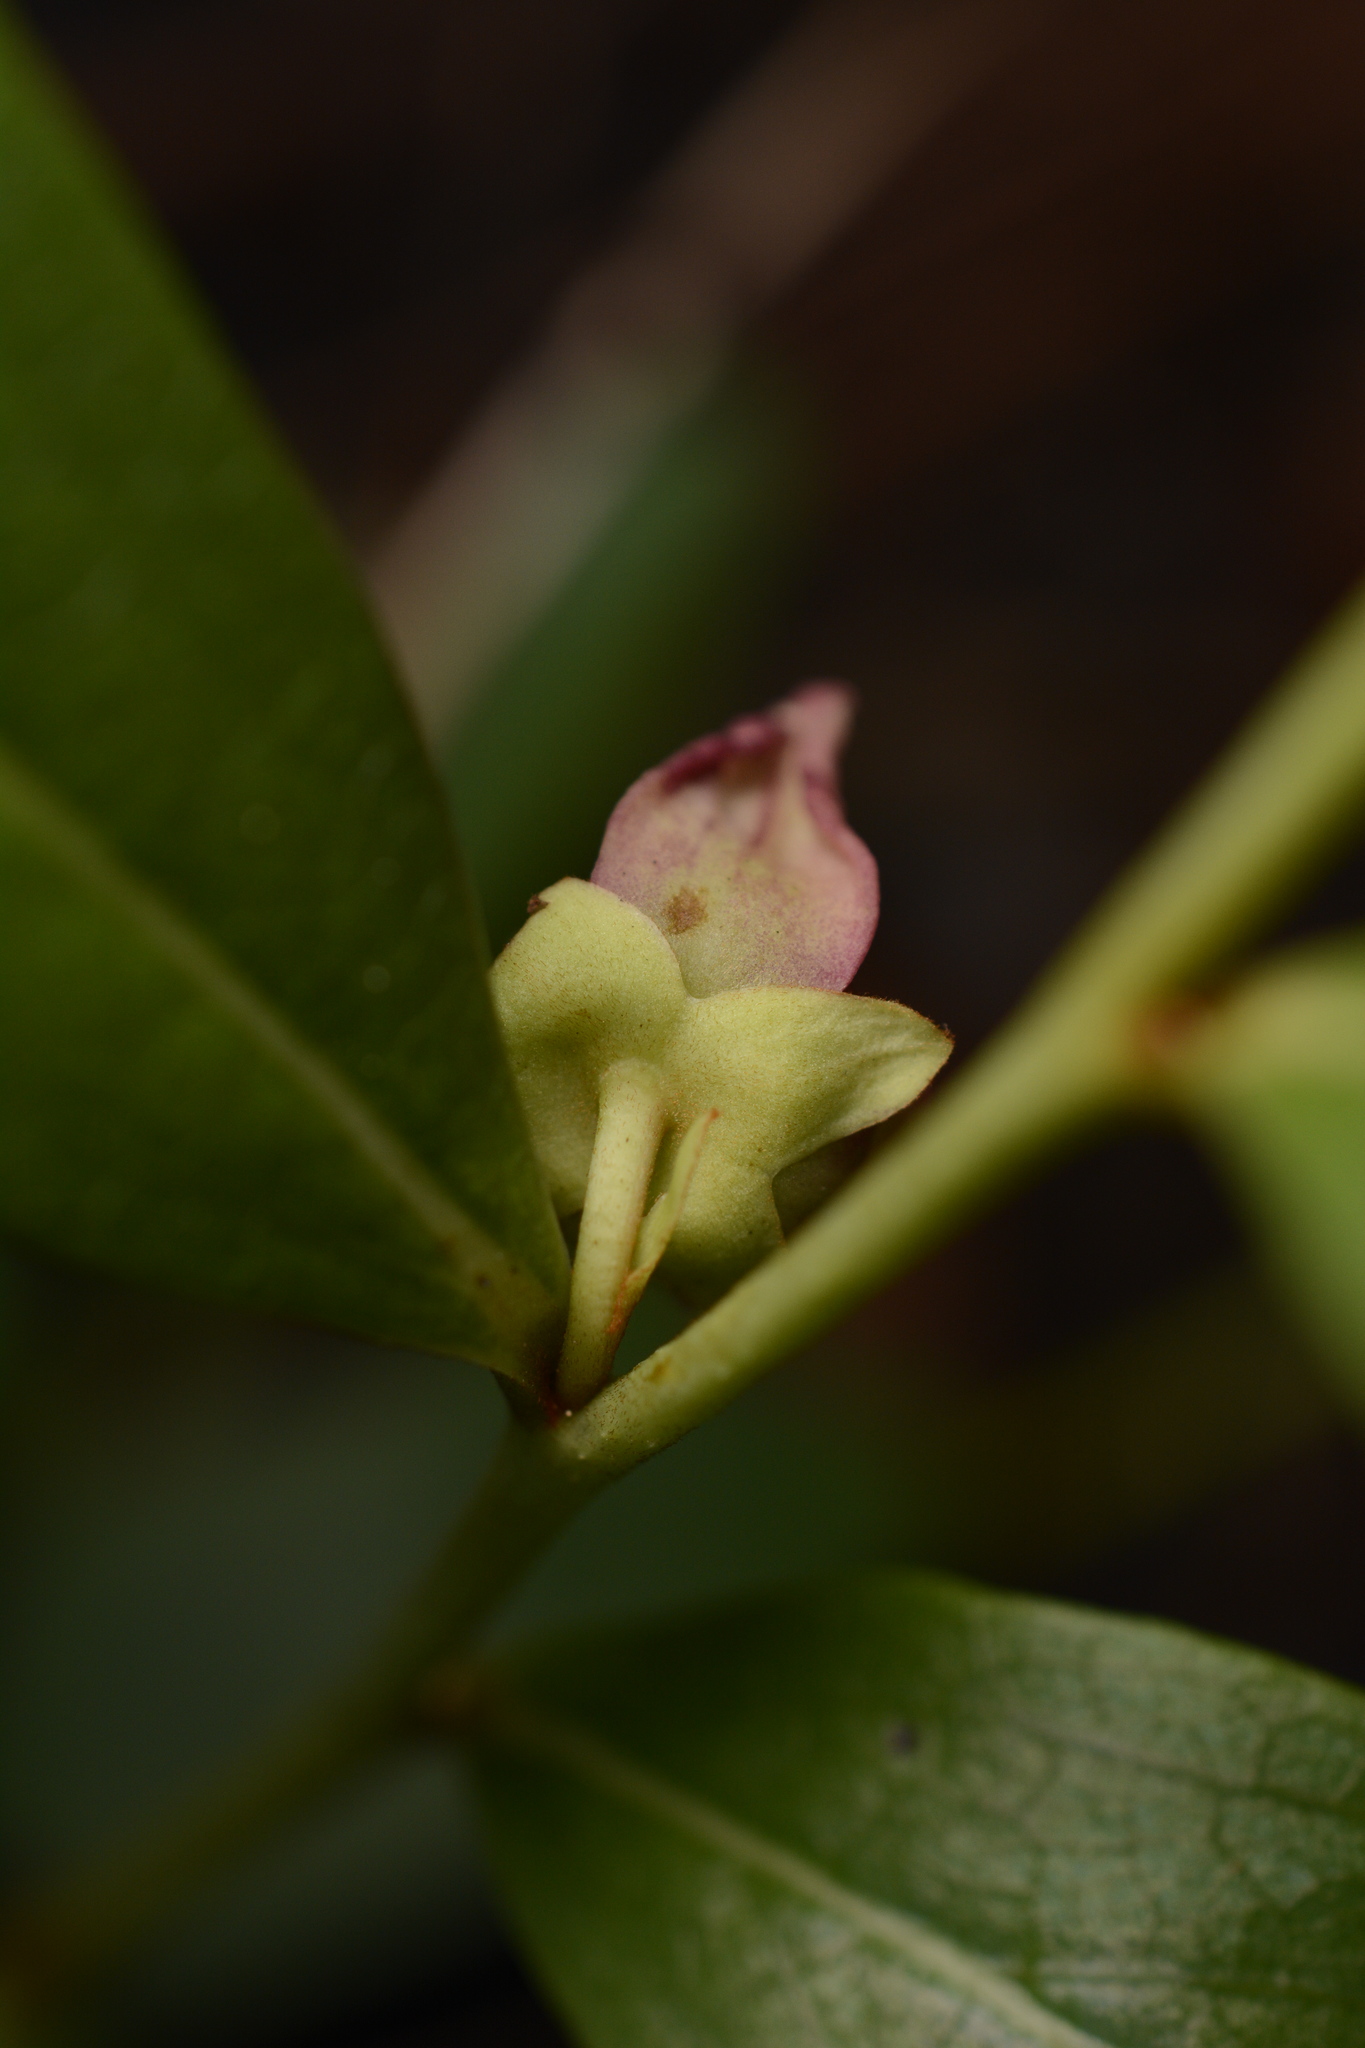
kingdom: Plantae
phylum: Tracheophyta
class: Magnoliopsida
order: Magnoliales
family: Annonaceae
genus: Asimina
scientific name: Asimina pygmaea
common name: Dwarf pawpaw
